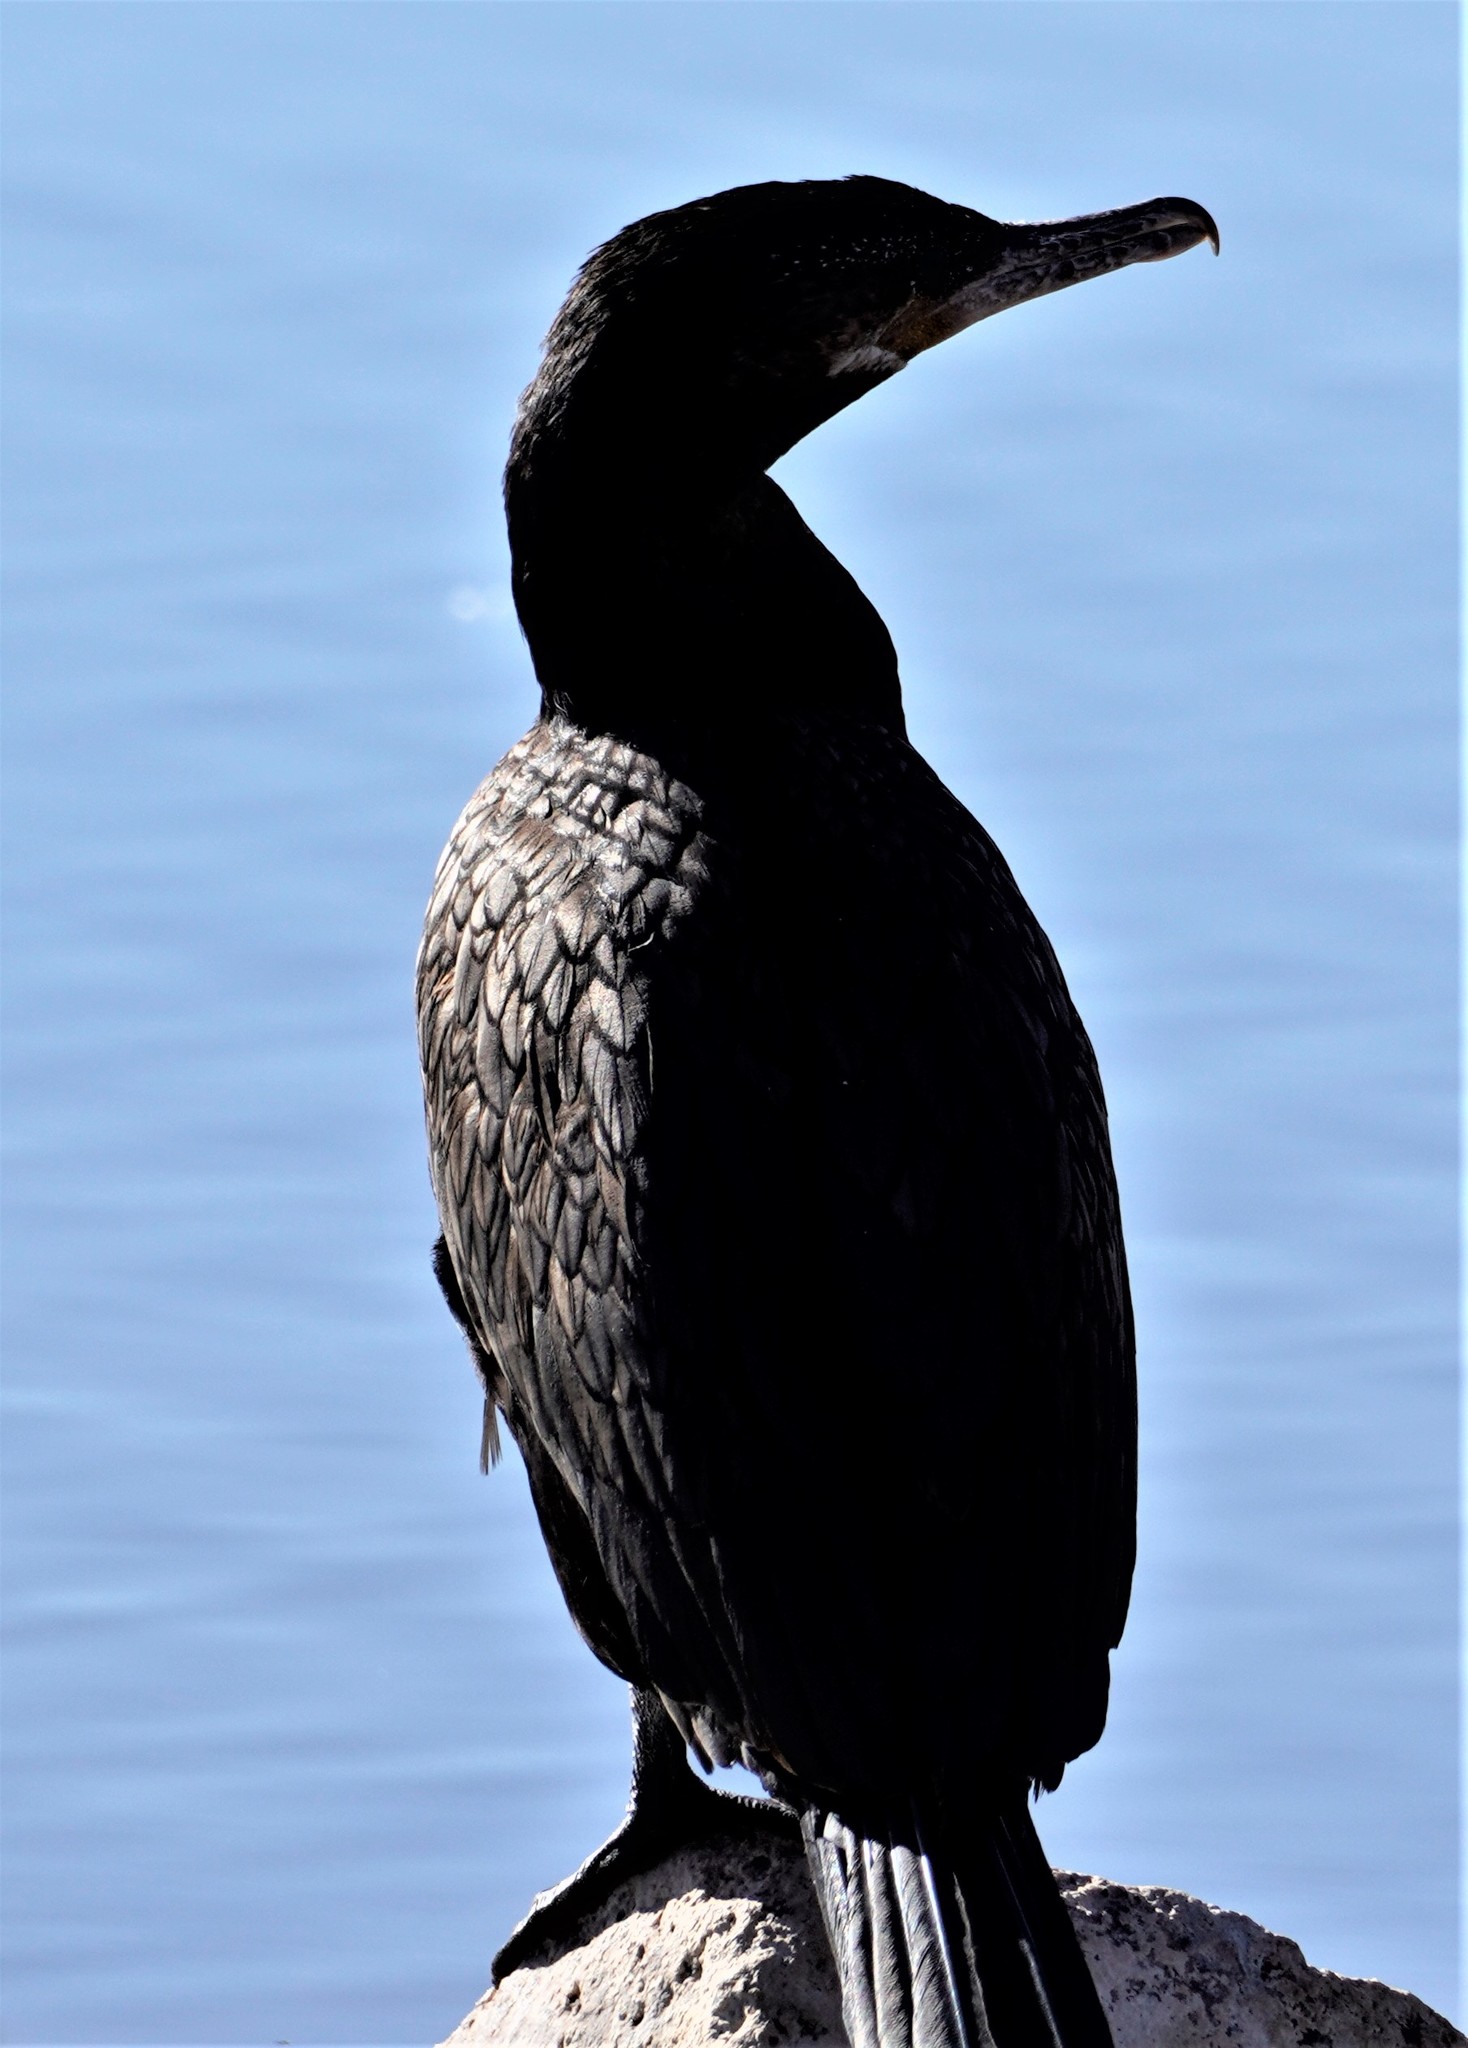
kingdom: Animalia
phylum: Chordata
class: Aves
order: Suliformes
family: Phalacrocoracidae
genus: Phalacrocorax
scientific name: Phalacrocorax brasilianus
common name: Neotropic cormorant
